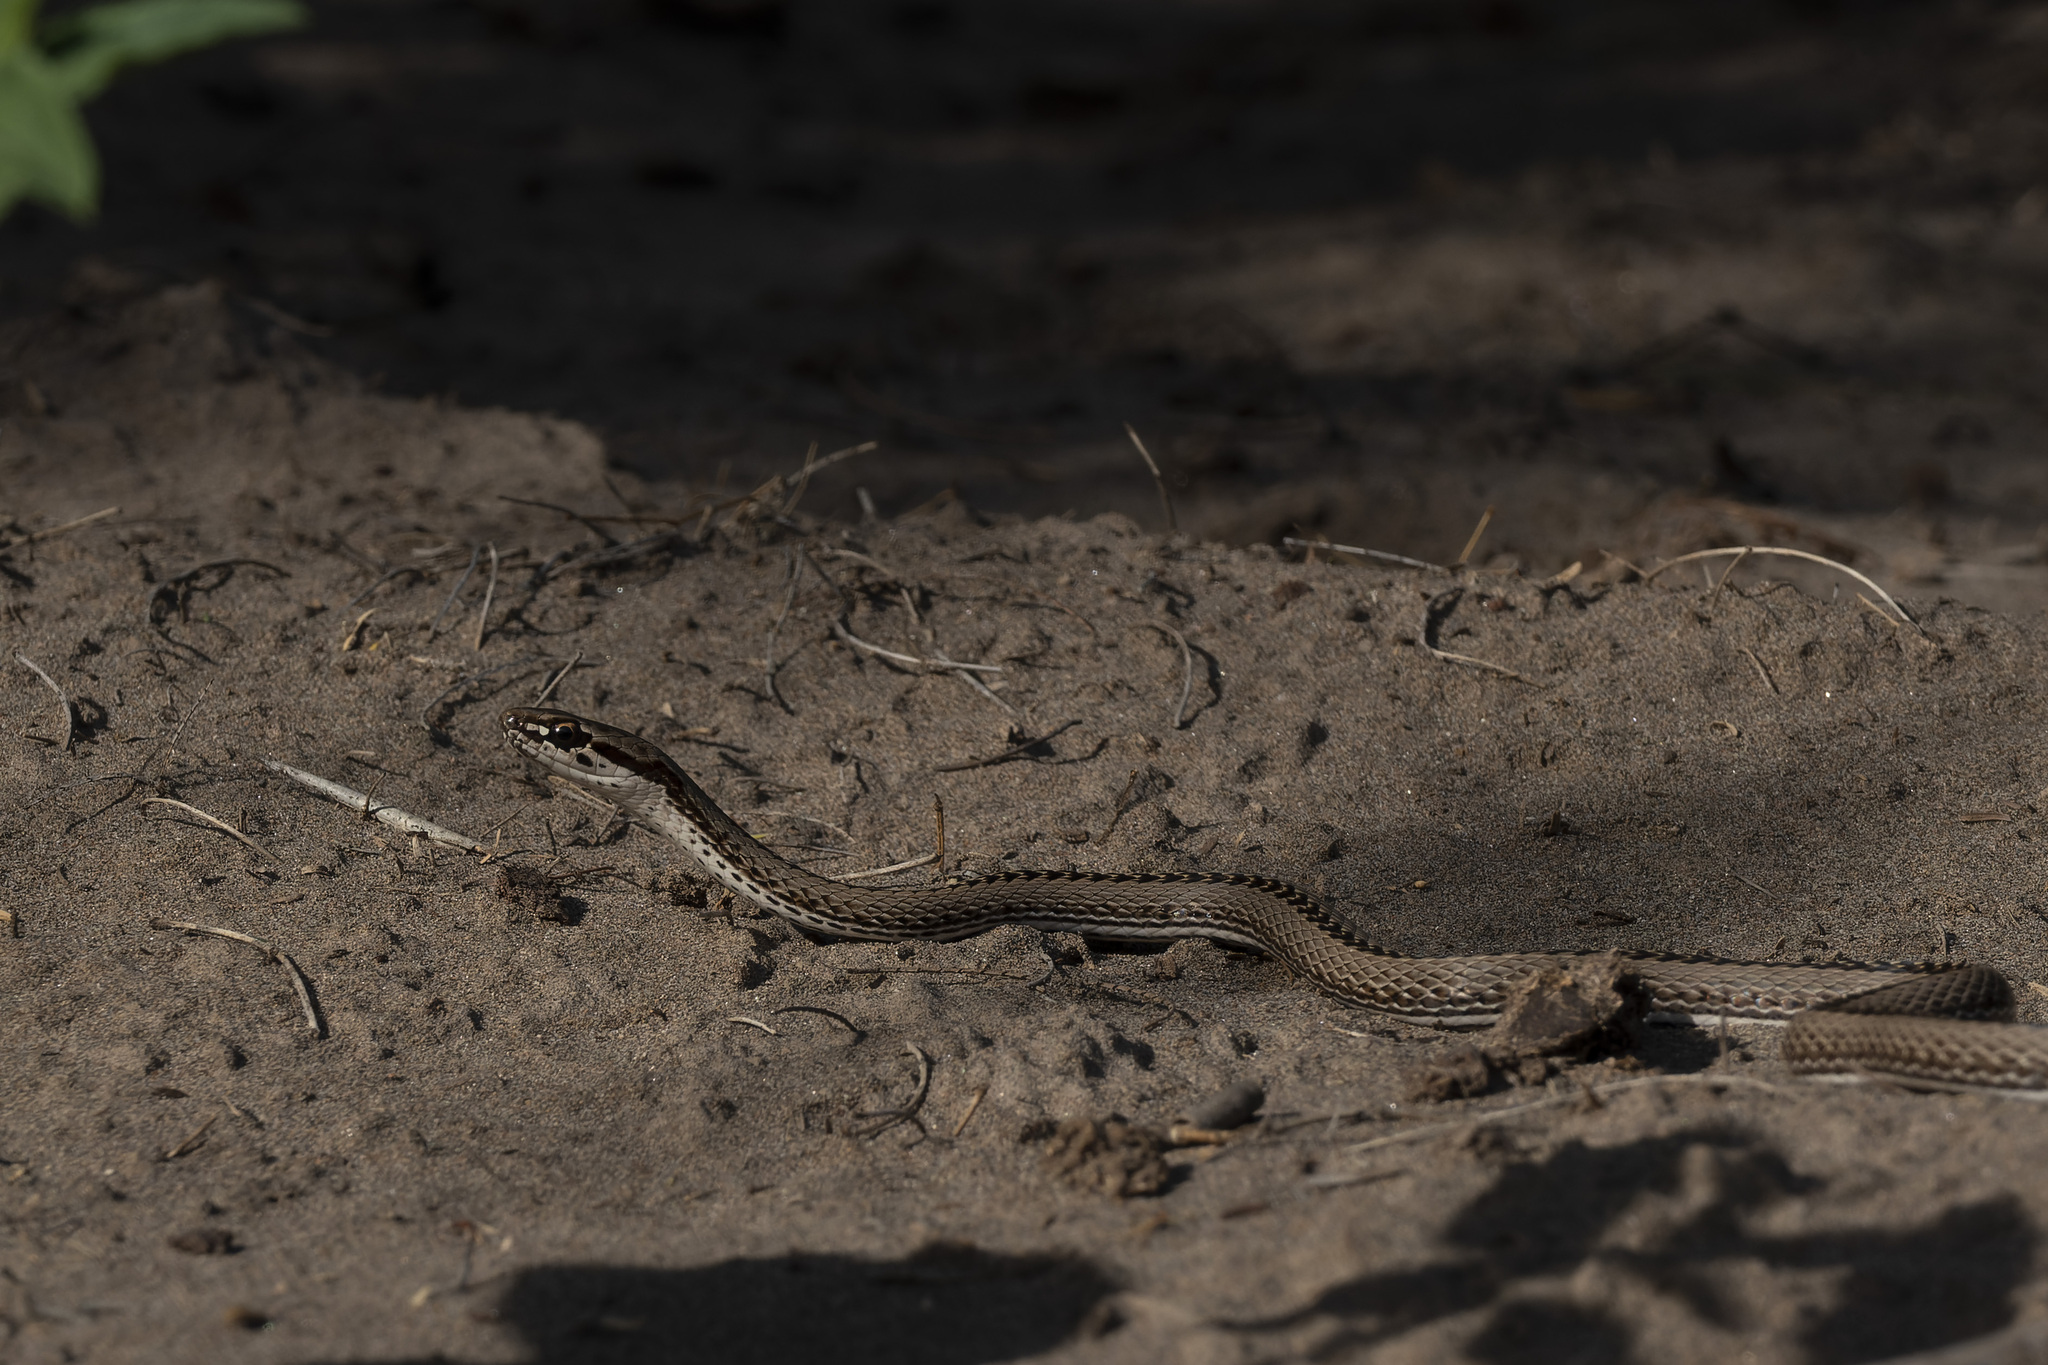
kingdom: Animalia
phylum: Chordata
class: Squamata
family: Colubridae
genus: Philodryas
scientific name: Philodryas psammophidea
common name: Günther's green racer
